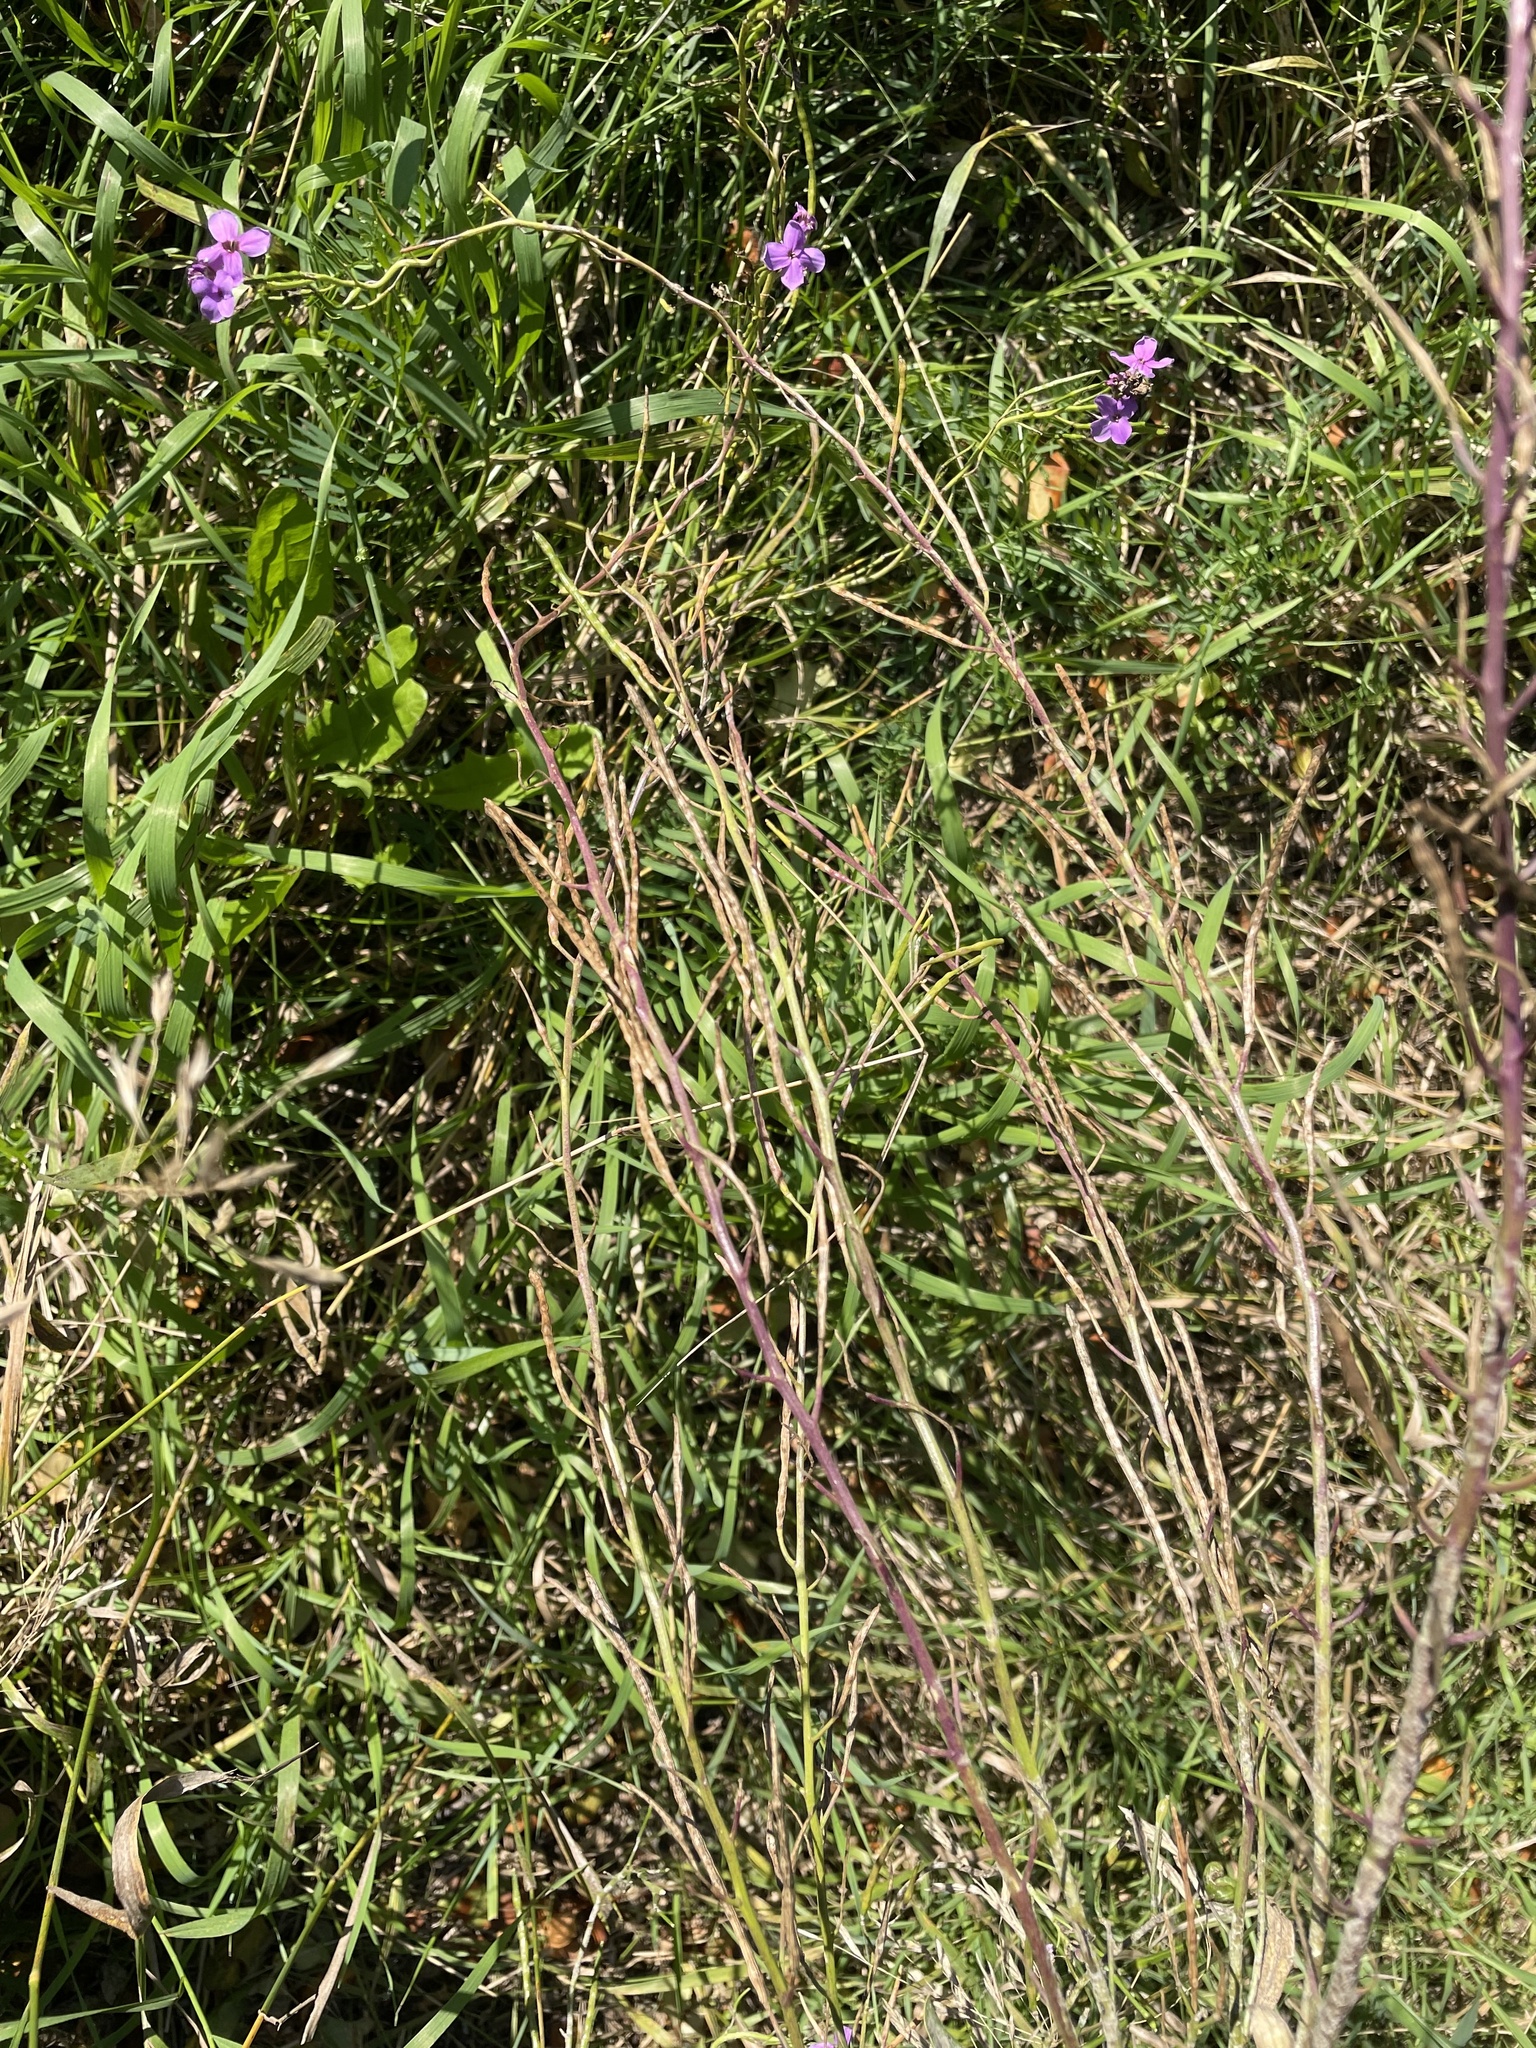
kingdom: Plantae
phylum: Tracheophyta
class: Magnoliopsida
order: Brassicales
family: Brassicaceae
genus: Hesperis
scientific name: Hesperis matronalis
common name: Dame's-violet
